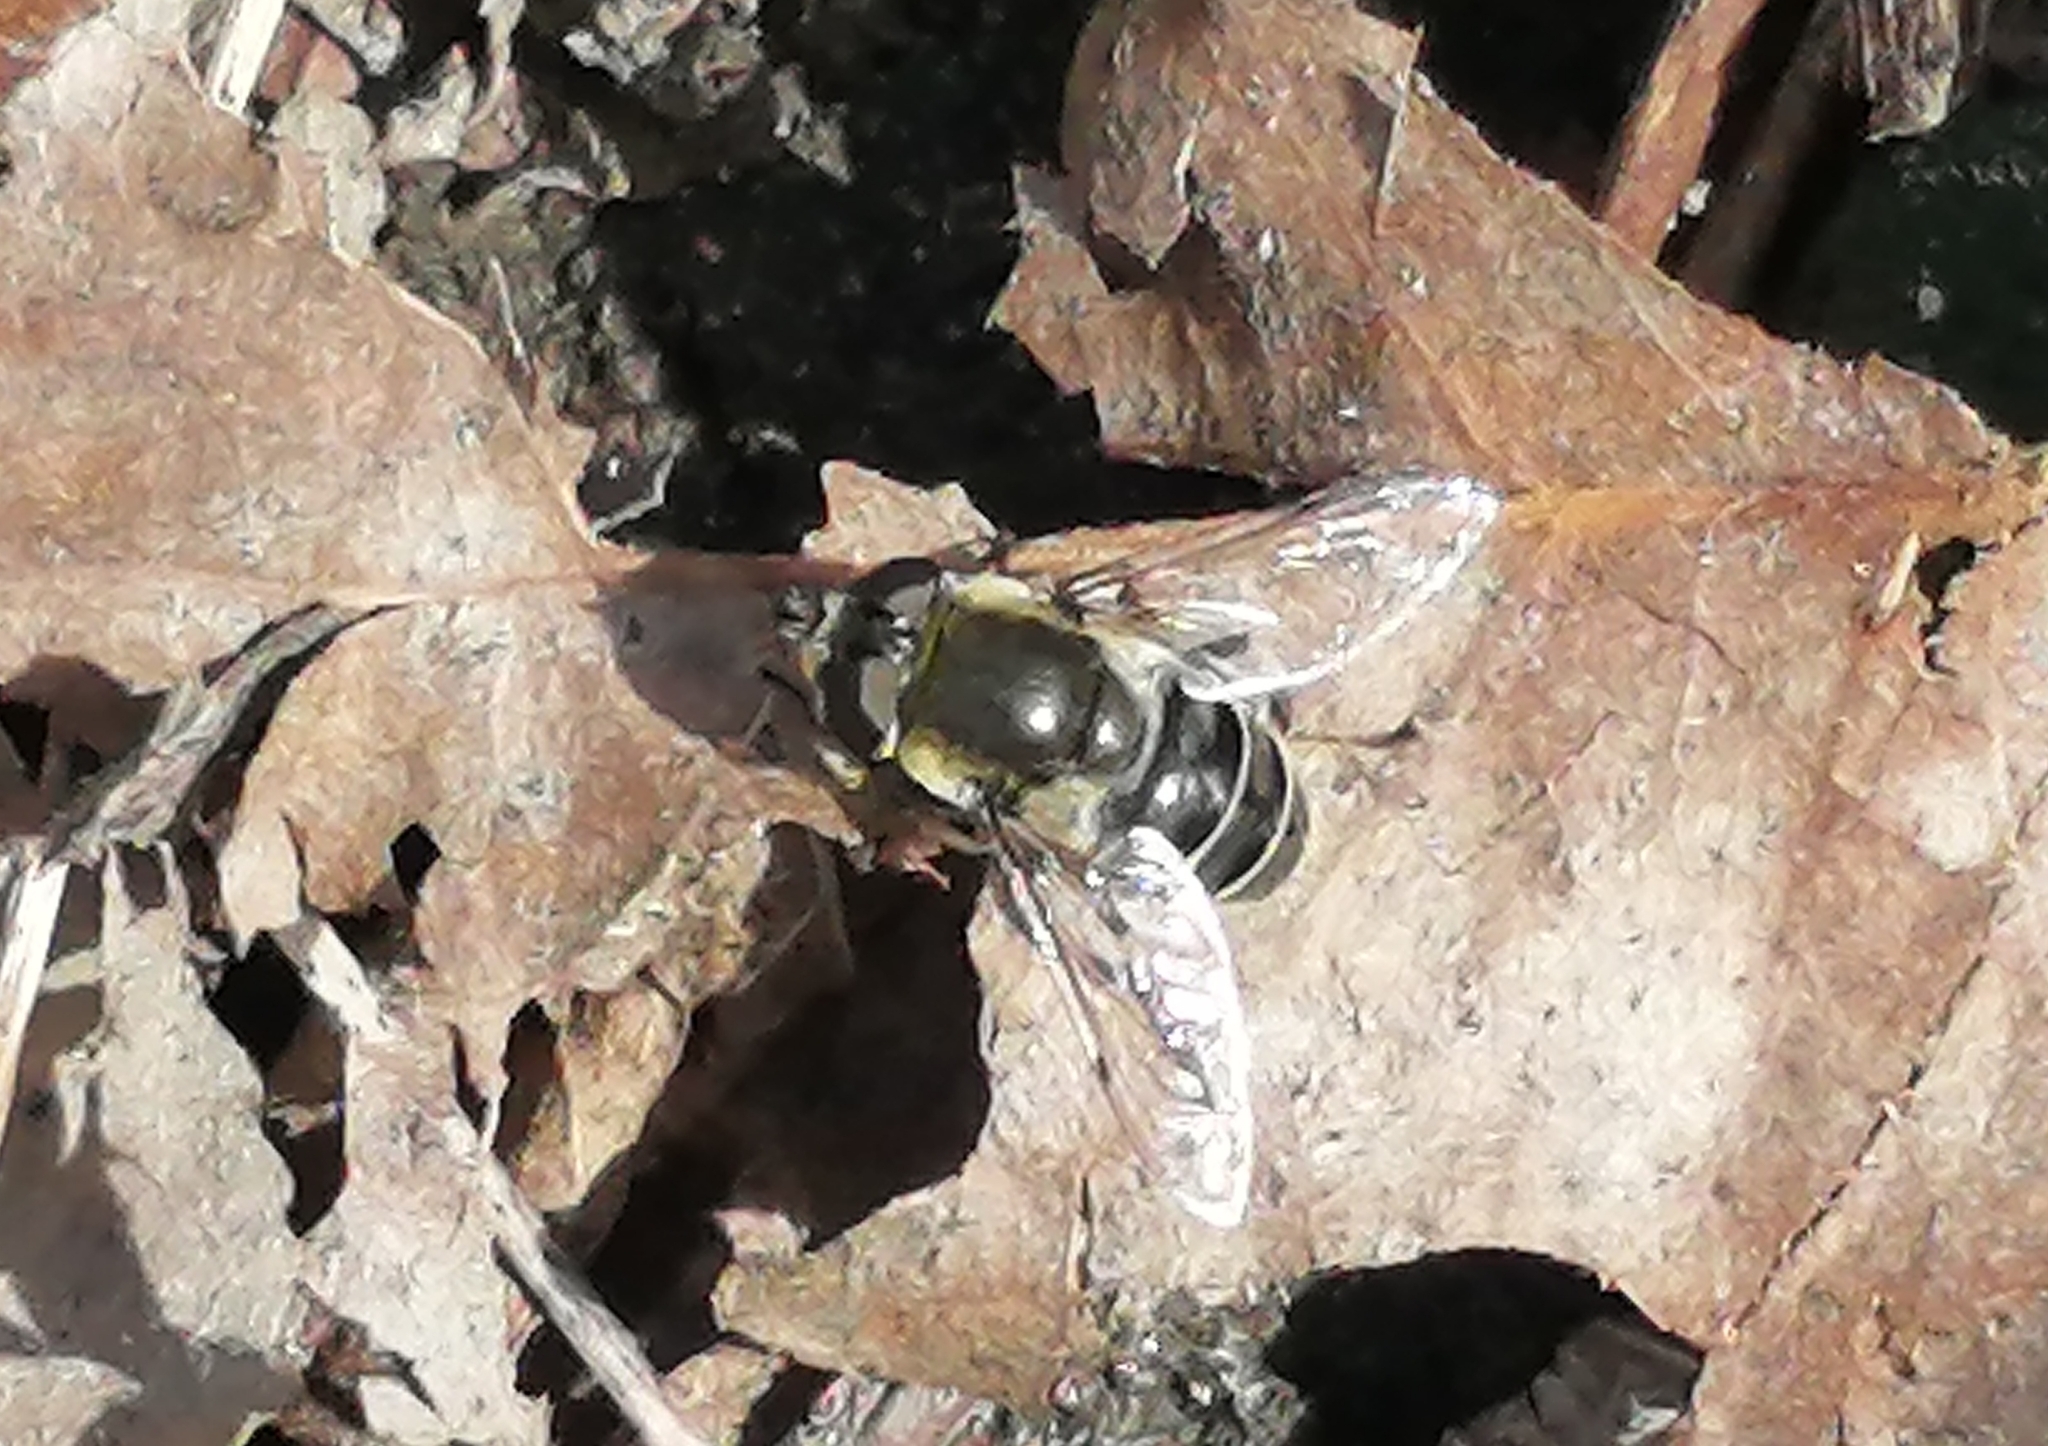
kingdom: Animalia
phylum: Arthropoda
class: Insecta
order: Diptera
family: Syrphidae
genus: Eristalis
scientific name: Eristalis dimidiata
